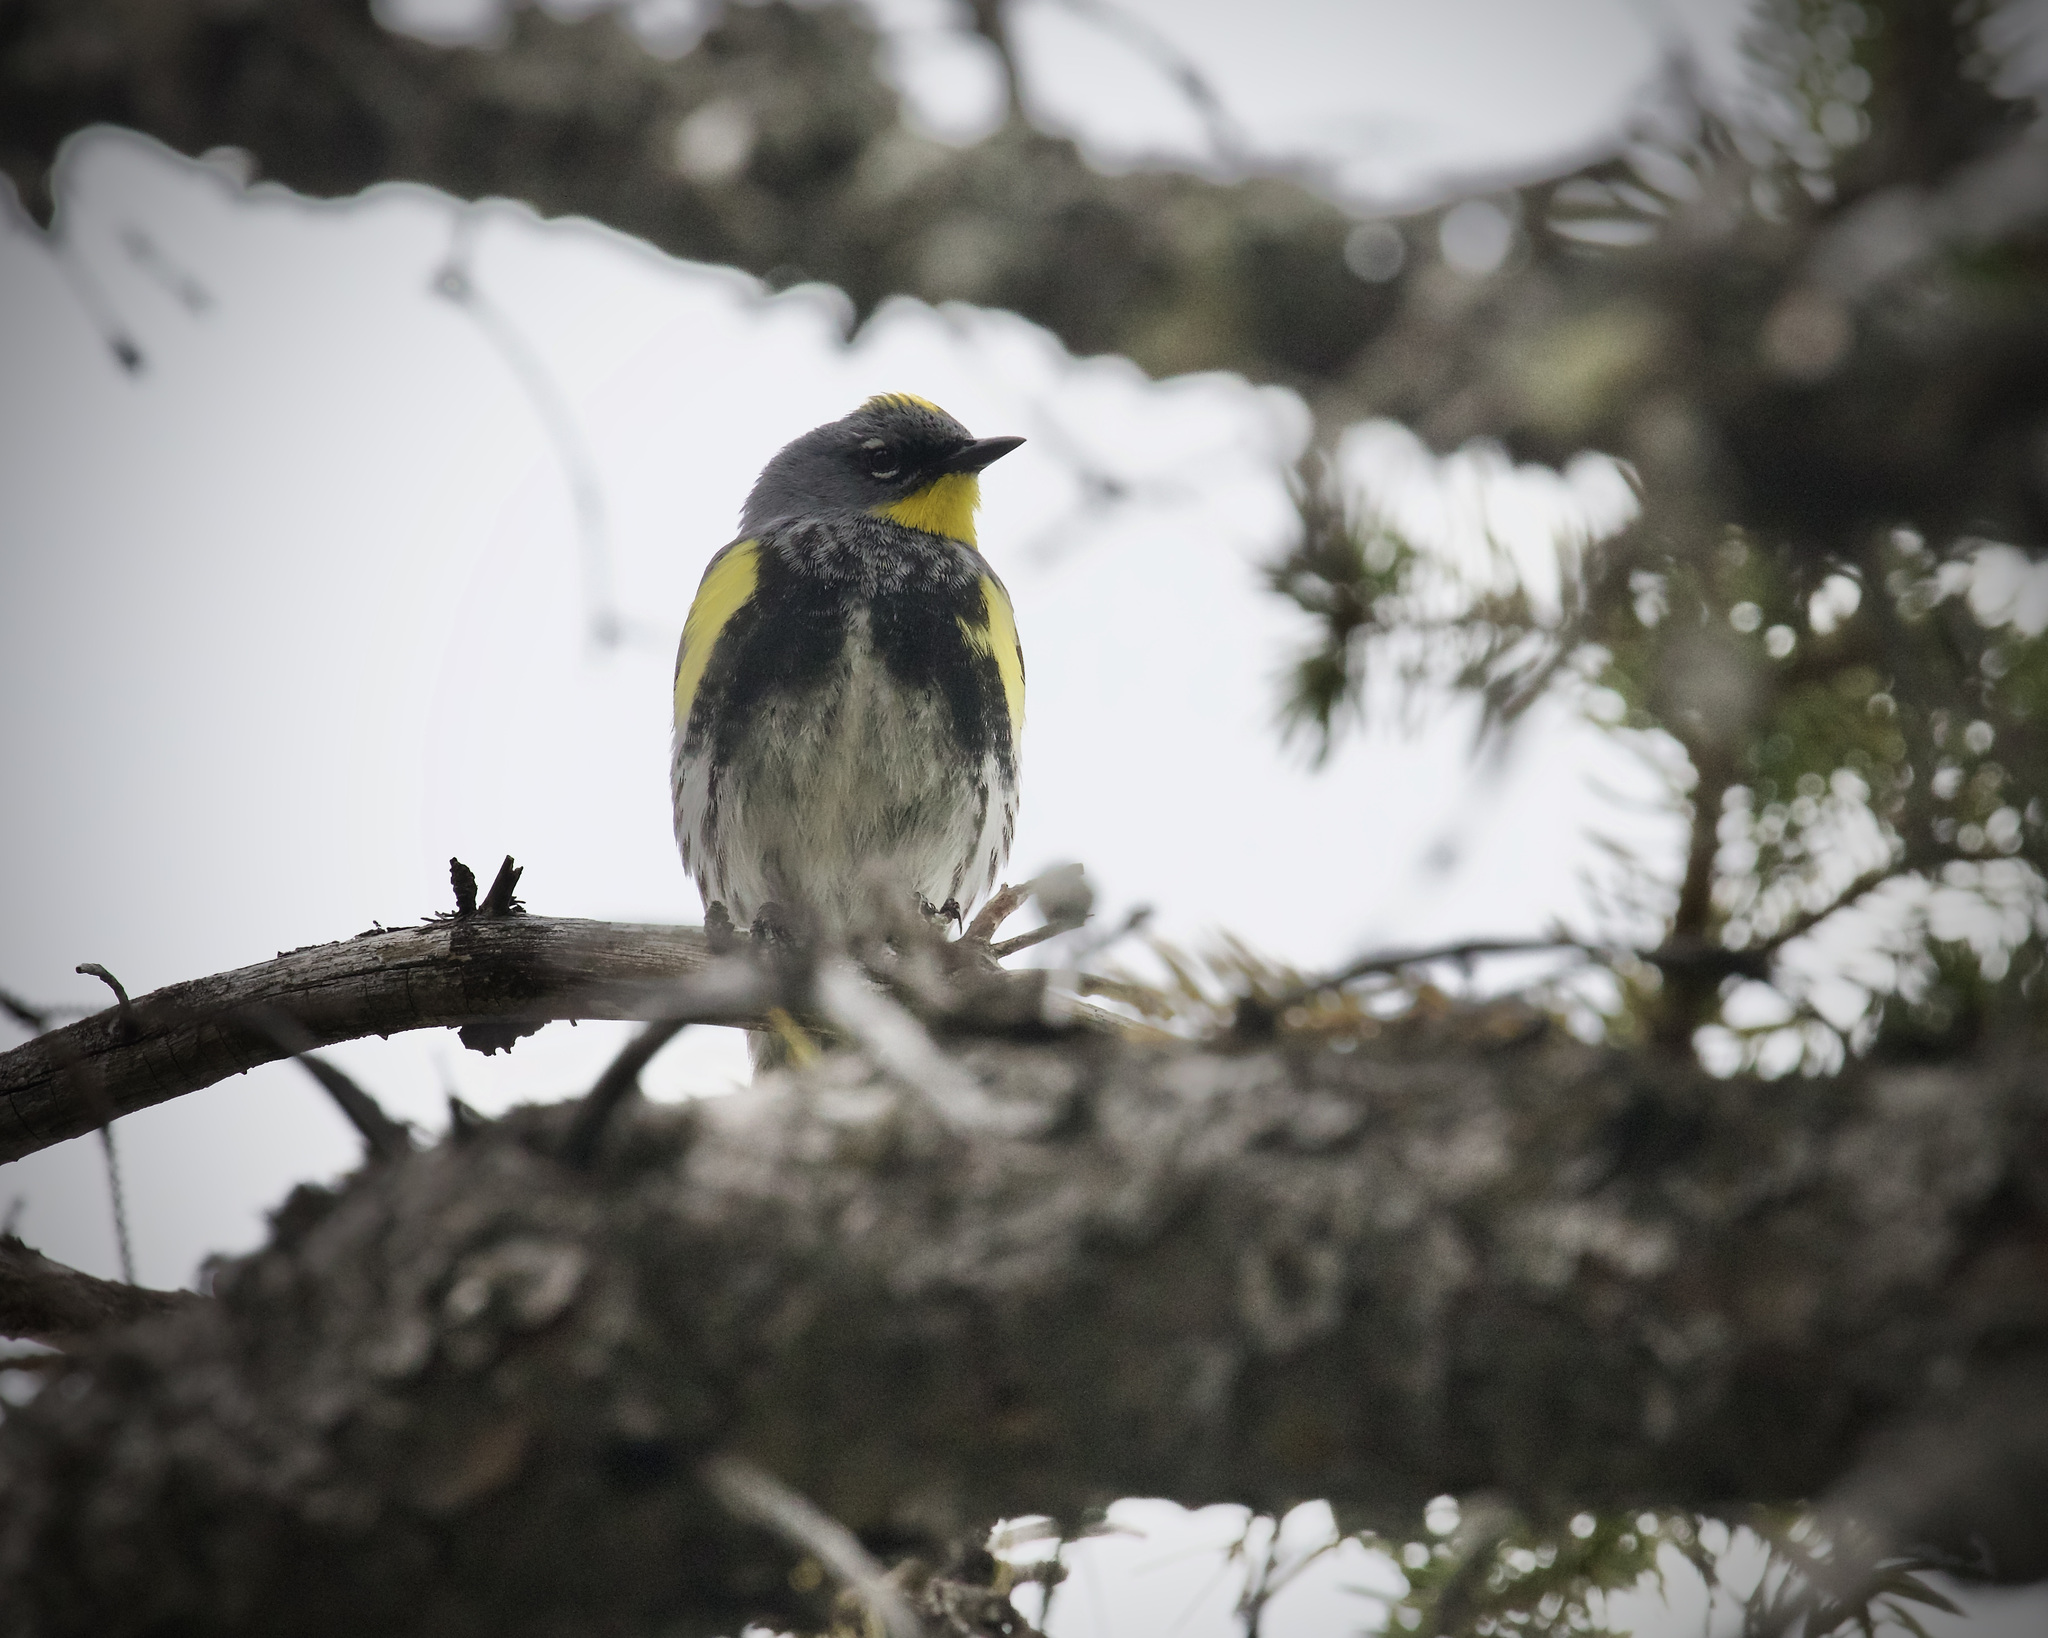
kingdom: Animalia
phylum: Chordata
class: Aves
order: Passeriformes
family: Parulidae
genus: Setophaga
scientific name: Setophaga coronata
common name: Myrtle warbler
